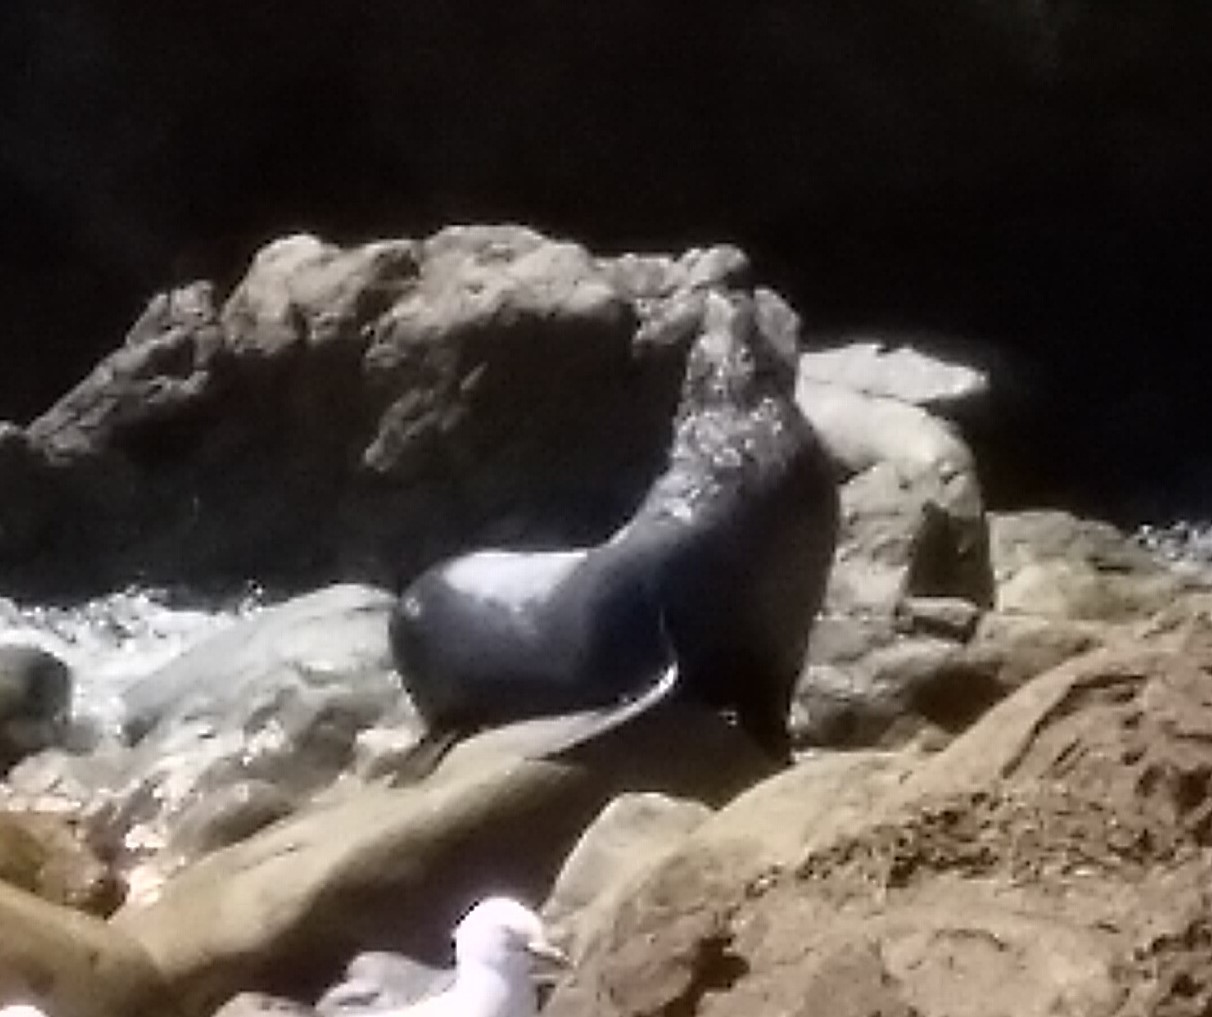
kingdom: Animalia
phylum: Chordata
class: Mammalia
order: Carnivora
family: Otariidae
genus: Arctocephalus
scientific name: Arctocephalus forsteri
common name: New zealand fur seal
